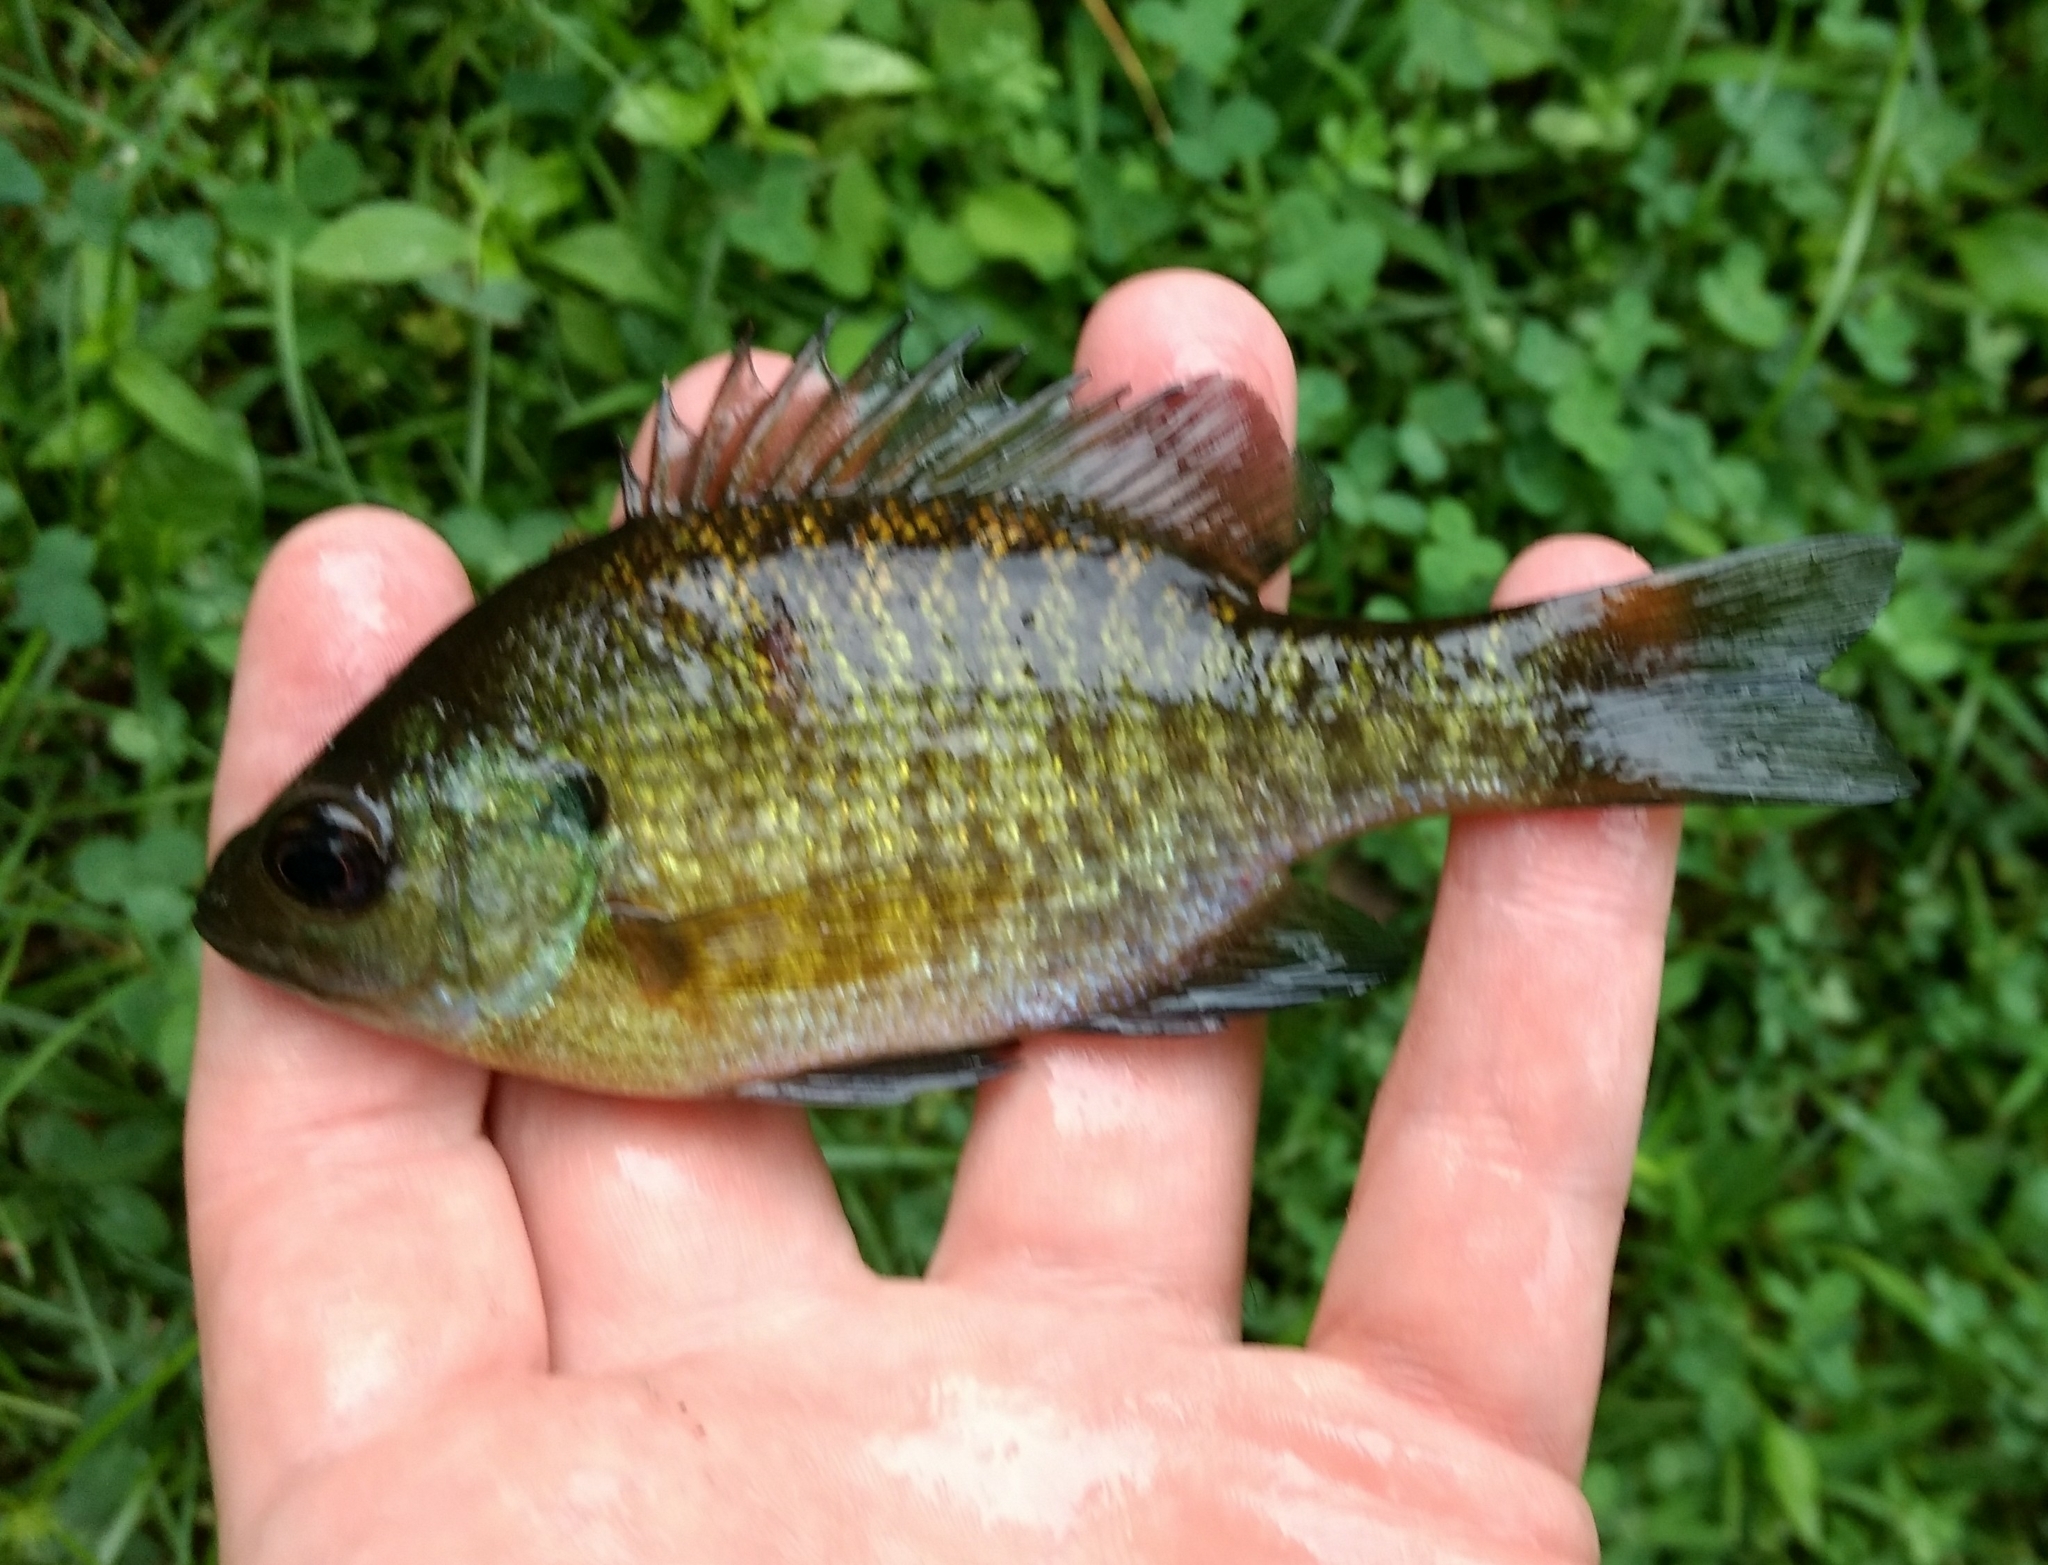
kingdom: Animalia
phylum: Chordata
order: Perciformes
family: Centrarchidae
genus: Lepomis
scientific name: Lepomis macrochirus
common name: Bluegill
